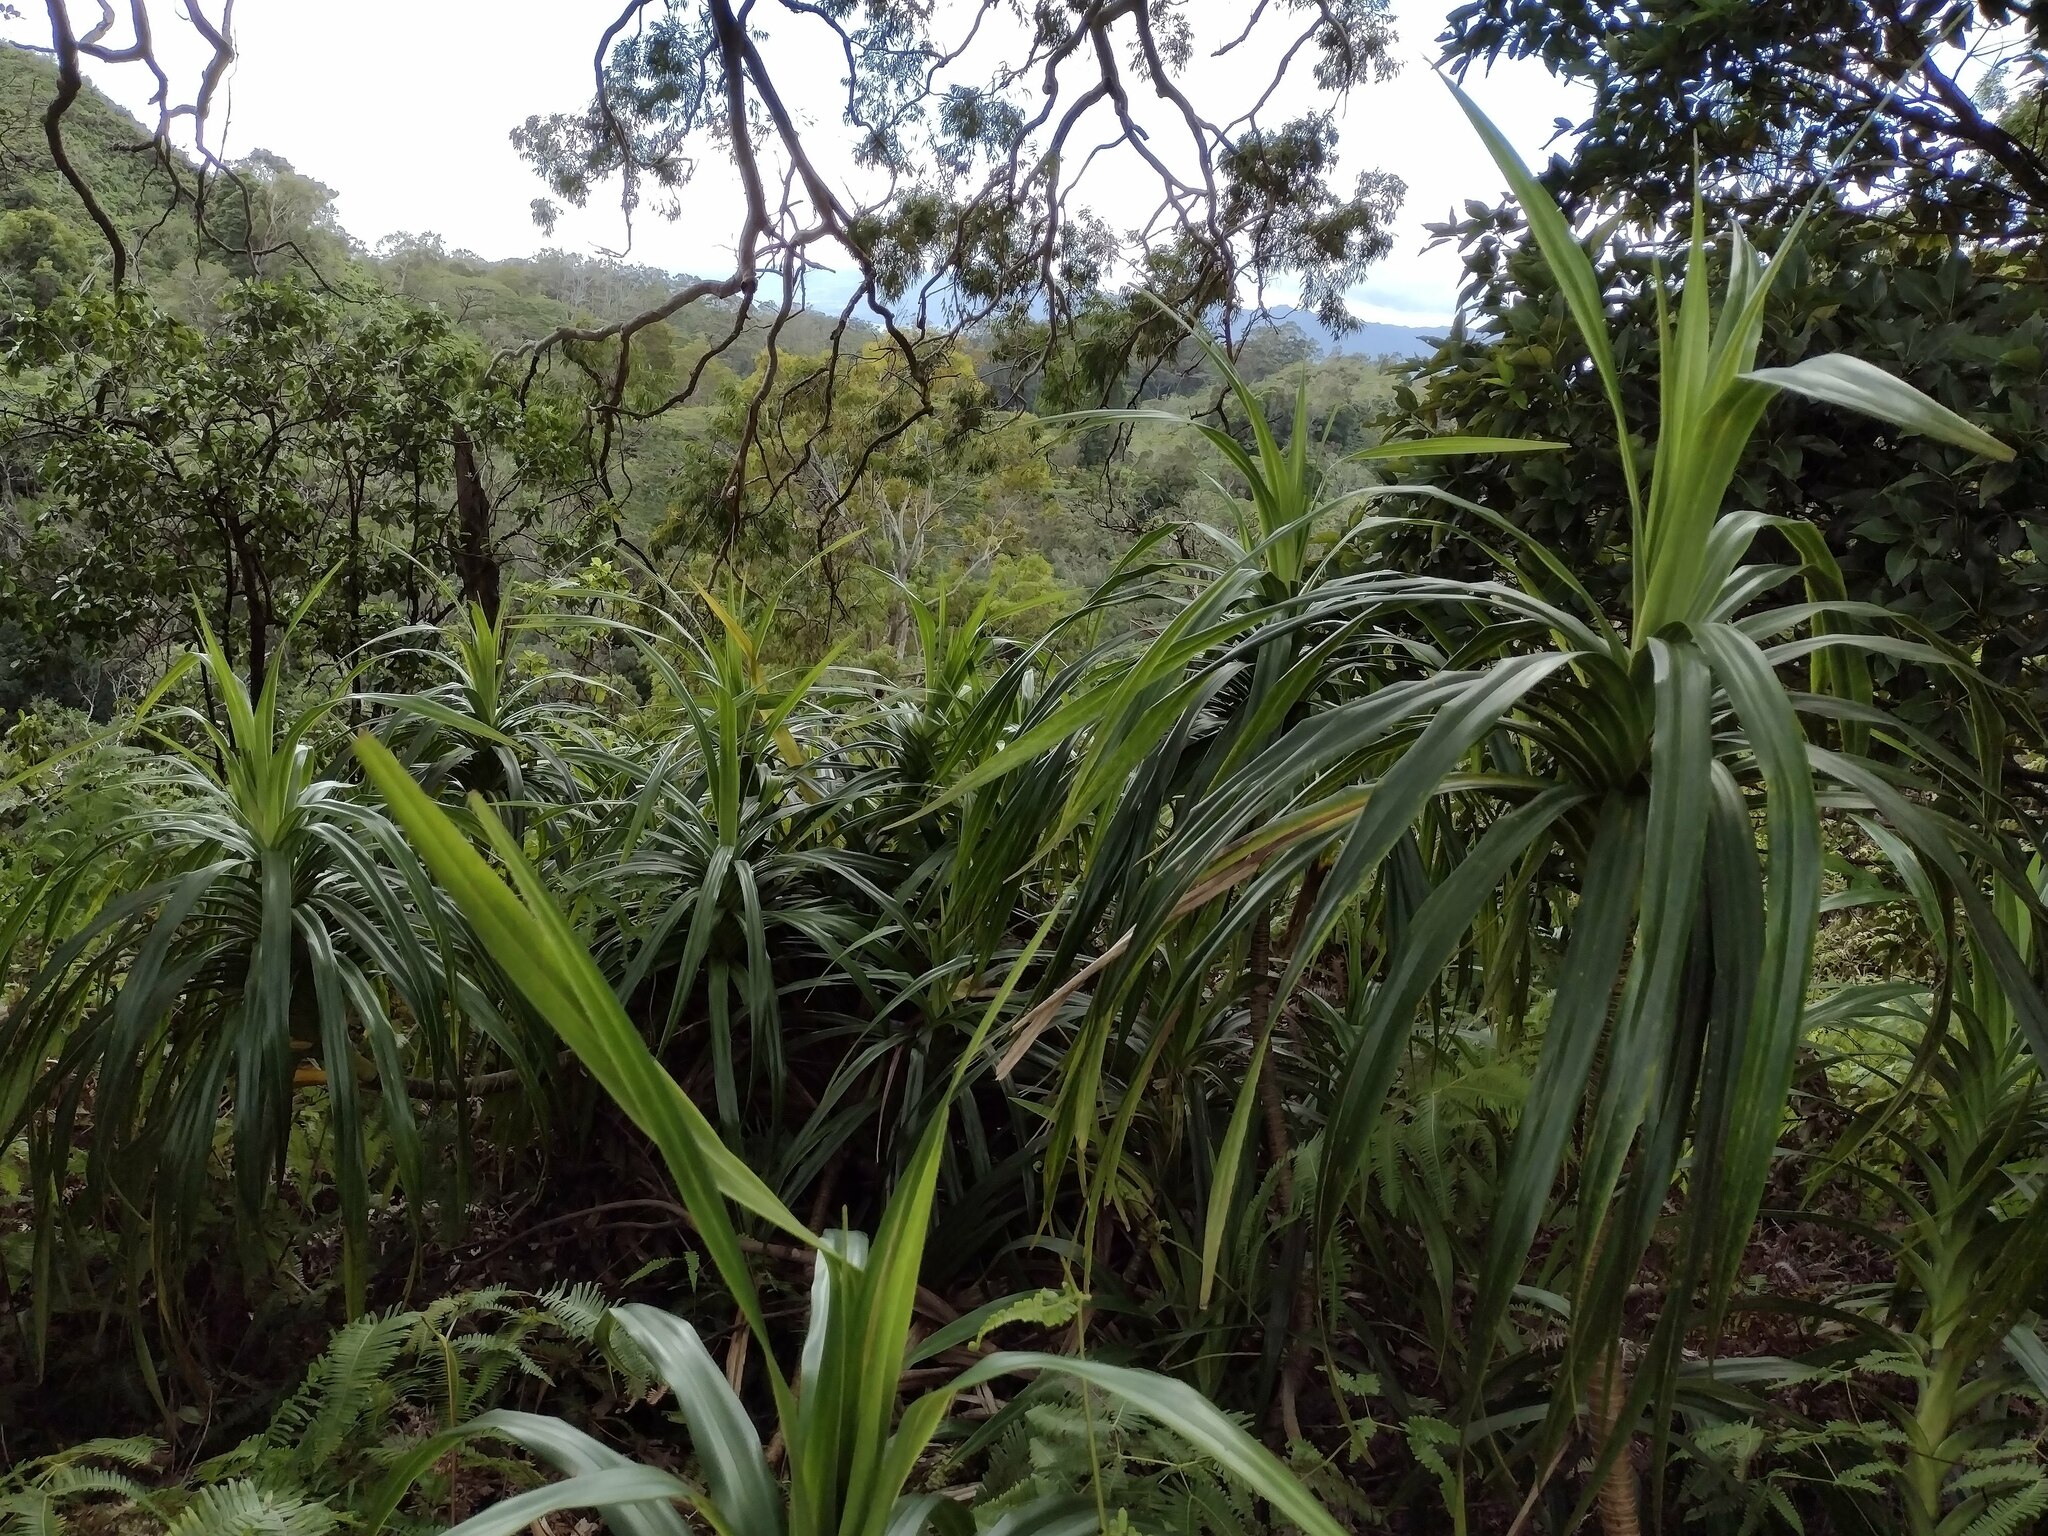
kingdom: Plantae
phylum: Tracheophyta
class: Liliopsida
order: Pandanales
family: Pandanaceae
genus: Freycinetia
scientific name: Freycinetia arborea
